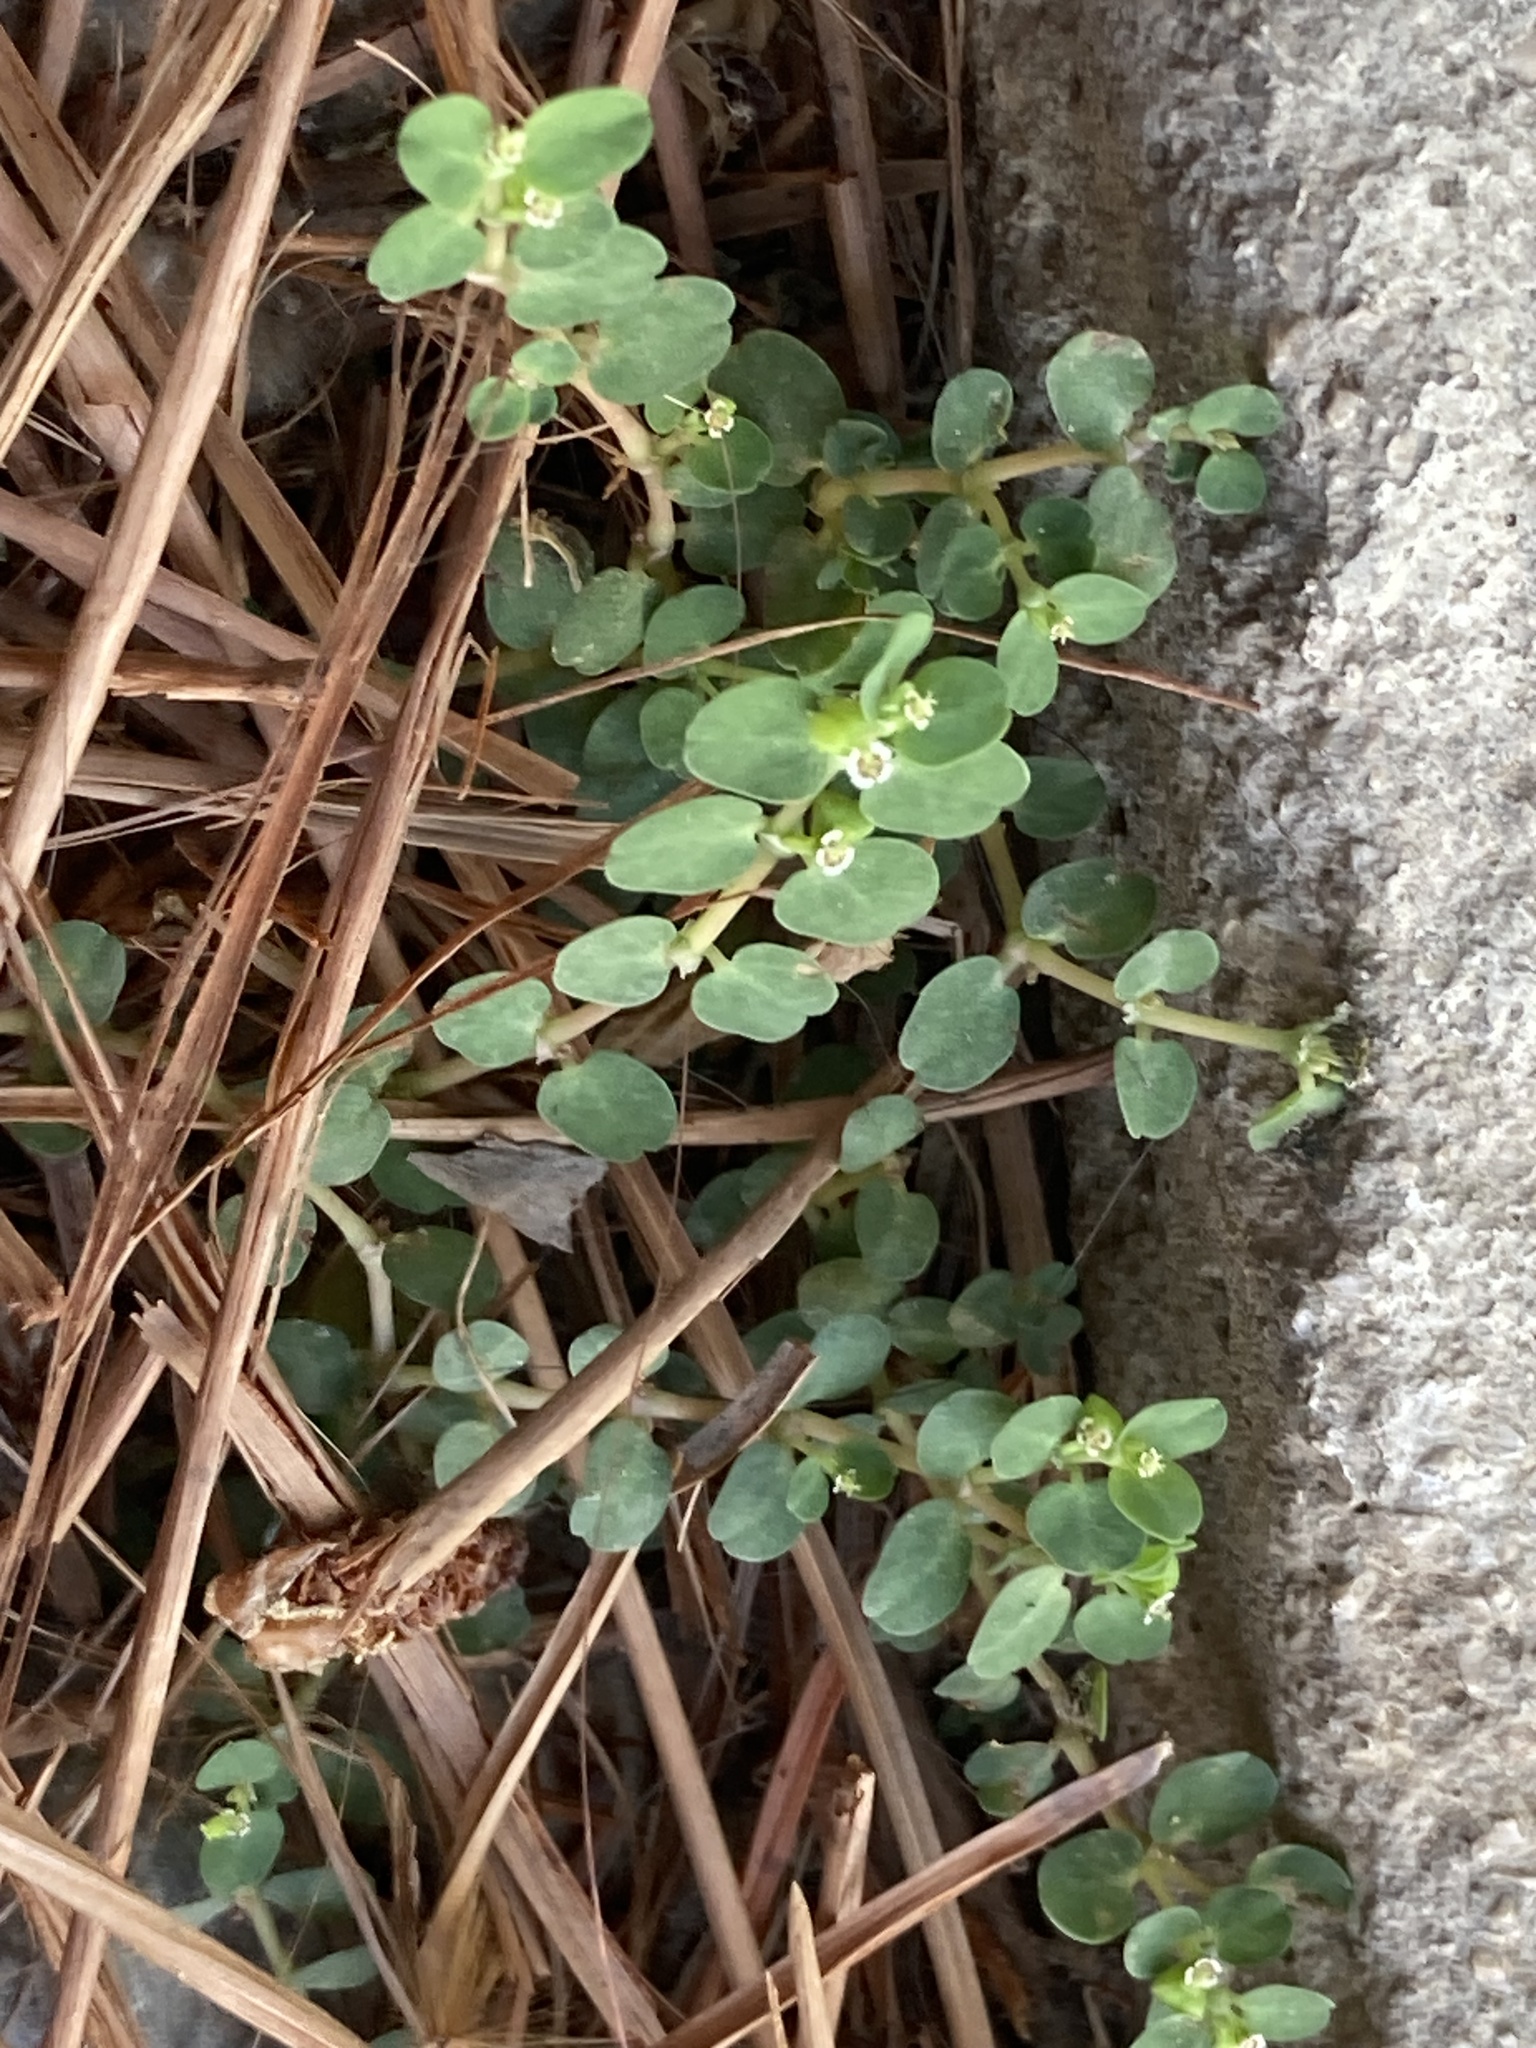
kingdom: Plantae
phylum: Tracheophyta
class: Magnoliopsida
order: Malpighiales
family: Euphorbiaceae
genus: Euphorbia
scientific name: Euphorbia serpens
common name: Matted sandmat
